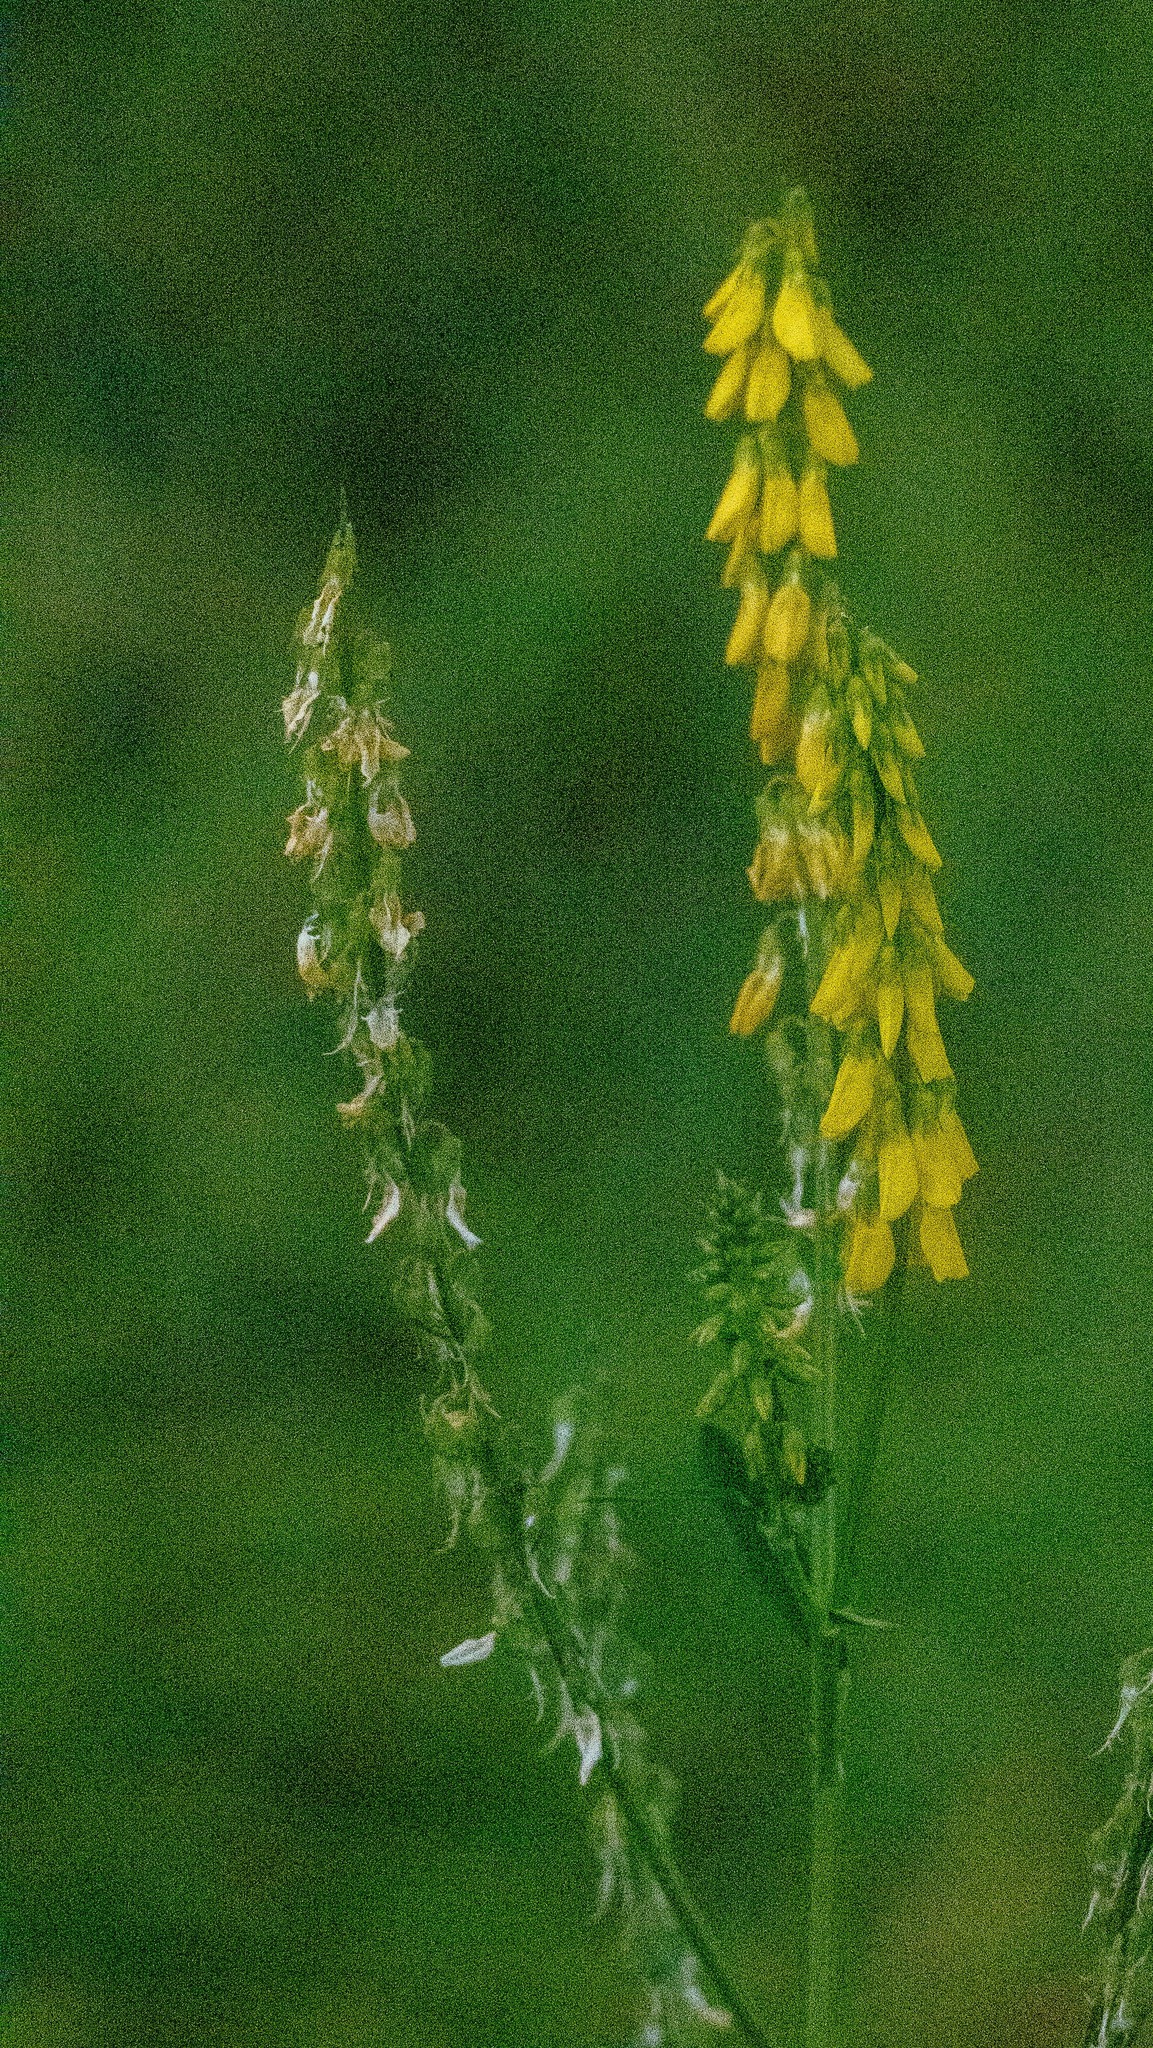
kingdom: Plantae
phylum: Tracheophyta
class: Magnoliopsida
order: Fabales
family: Fabaceae
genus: Melilotus
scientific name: Melilotus officinalis
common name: Sweetclover
